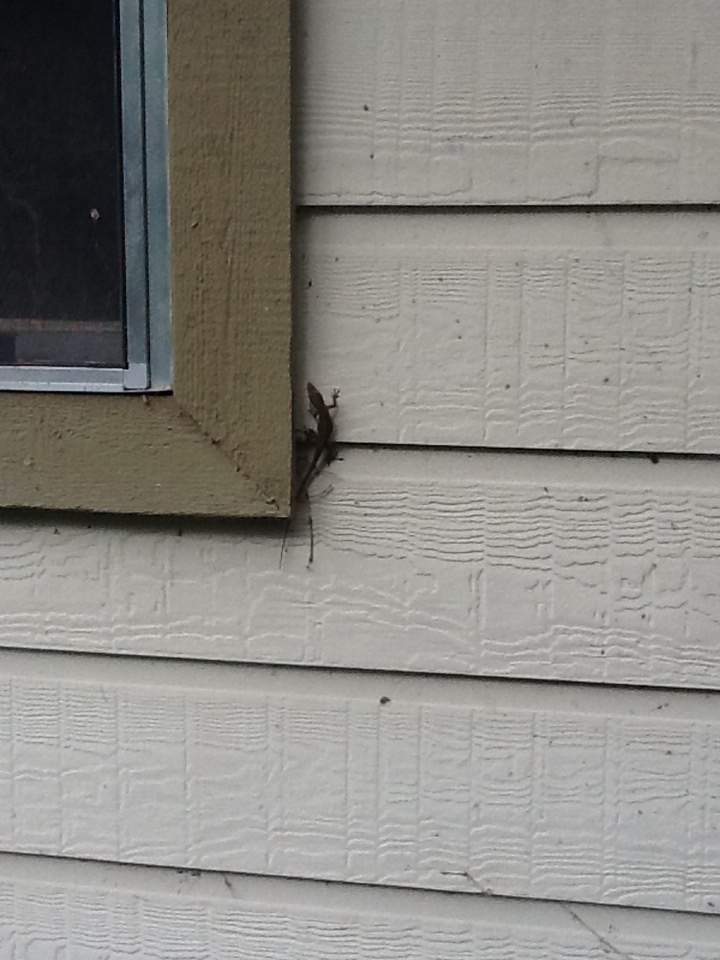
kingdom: Animalia
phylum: Chordata
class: Squamata
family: Dactyloidae
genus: Anolis
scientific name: Anolis carolinensis
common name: Green anole
